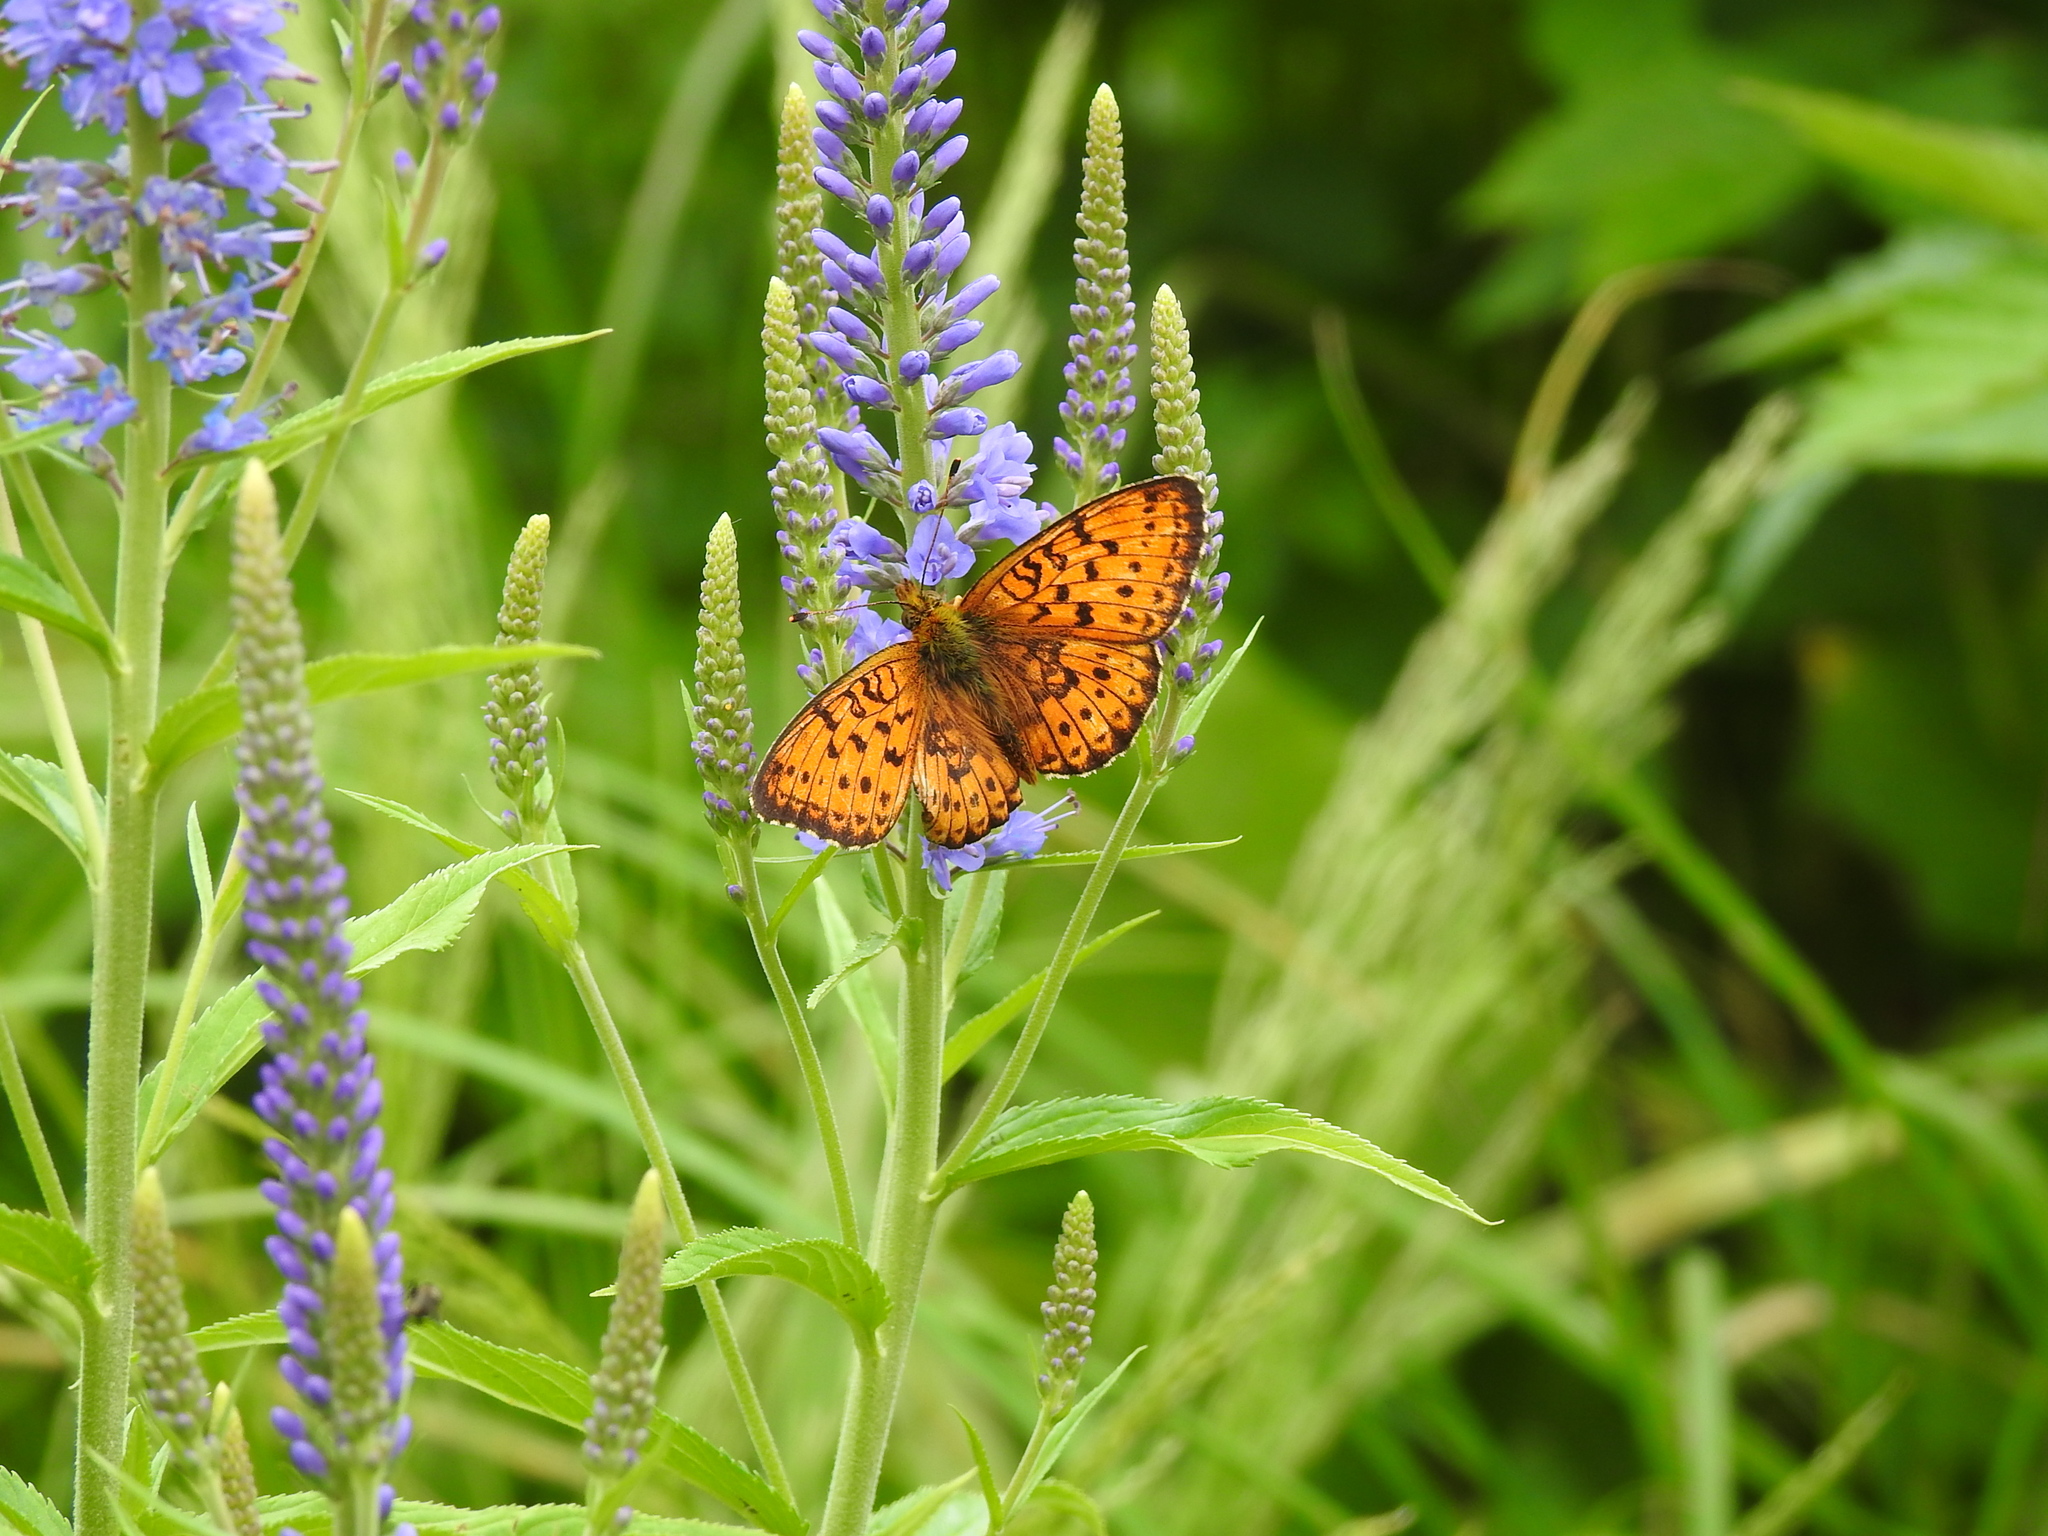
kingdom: Animalia
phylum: Arthropoda
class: Insecta
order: Lepidoptera
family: Nymphalidae
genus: Brenthis
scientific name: Brenthis ino
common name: Lesser marbled fritillary
